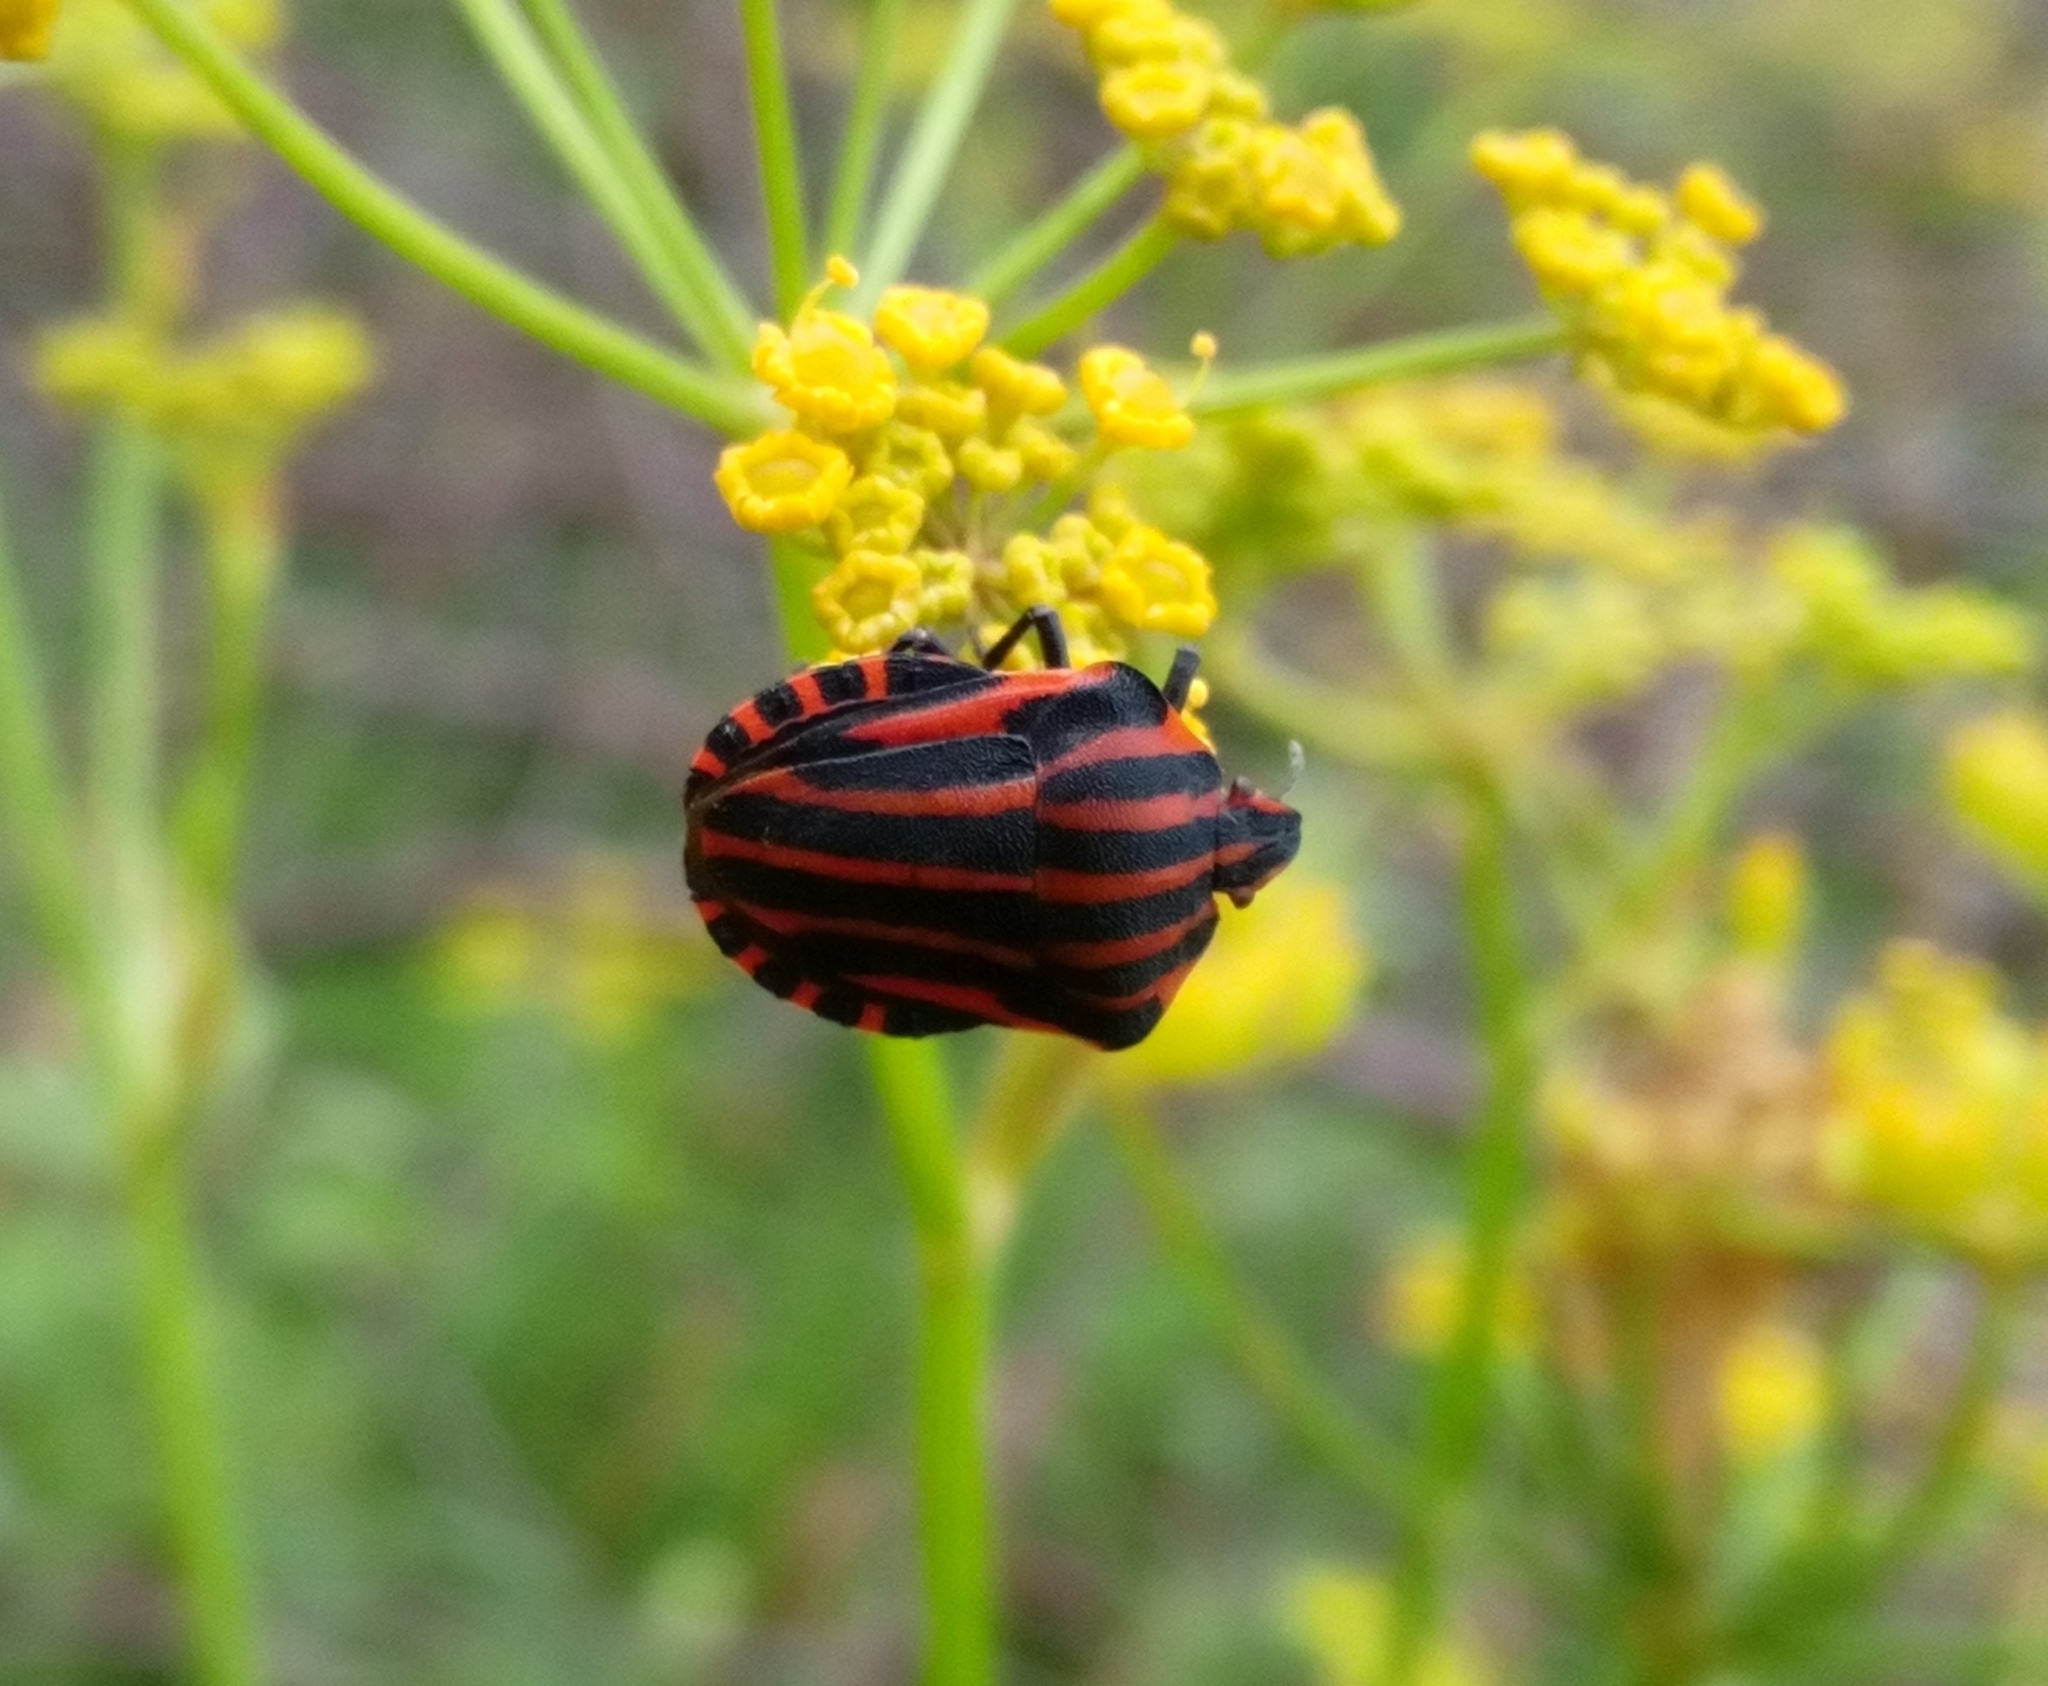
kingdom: Animalia
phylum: Arthropoda
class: Insecta
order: Hemiptera
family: Pentatomidae
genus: Graphosoma
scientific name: Graphosoma italicum
